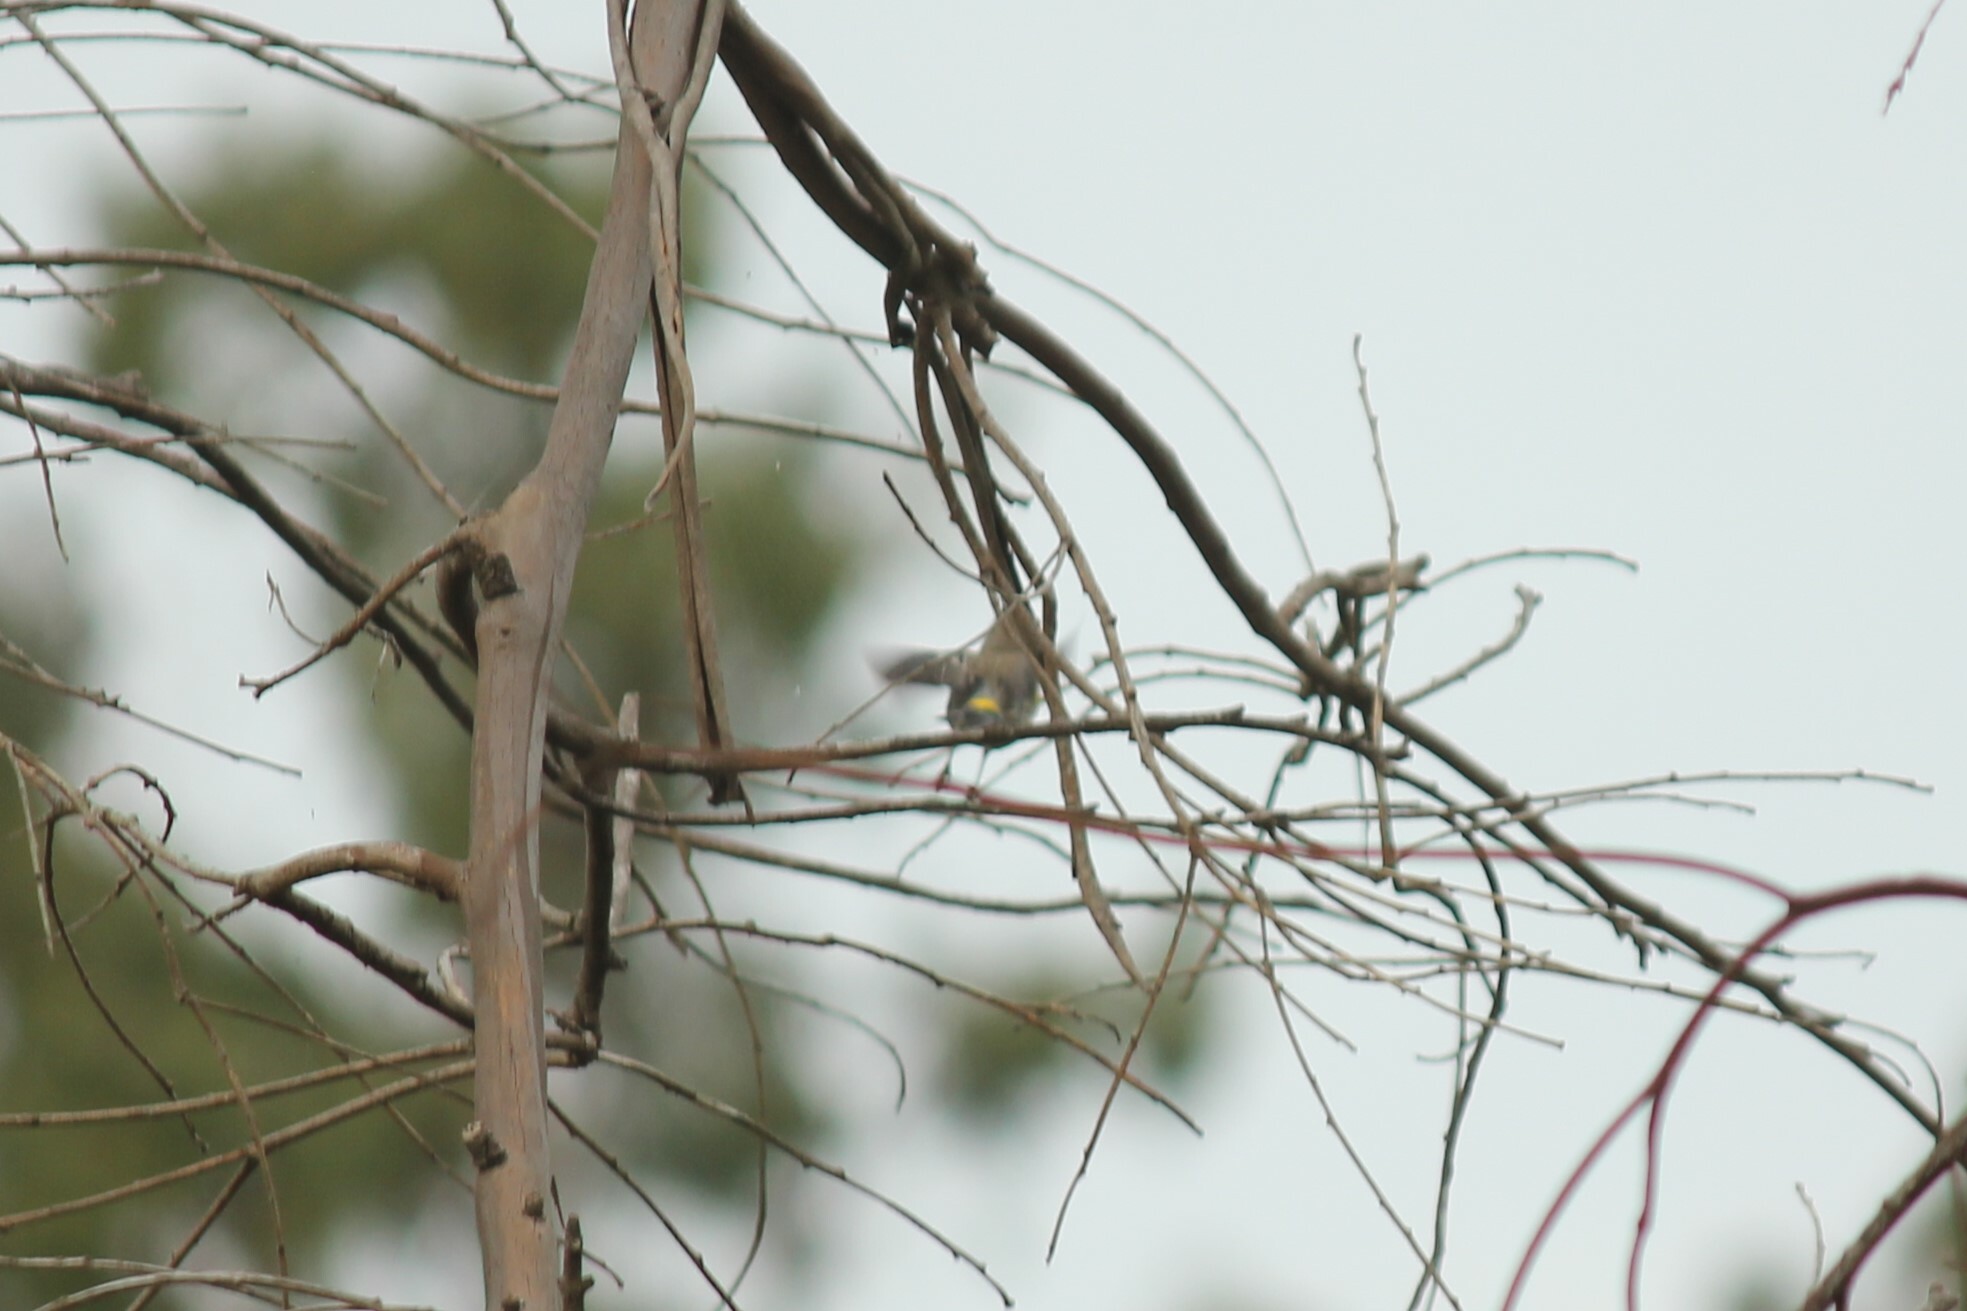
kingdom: Animalia
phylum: Chordata
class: Aves
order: Passeriformes
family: Parulidae
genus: Setophaga
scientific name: Setophaga coronata
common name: Myrtle warbler
